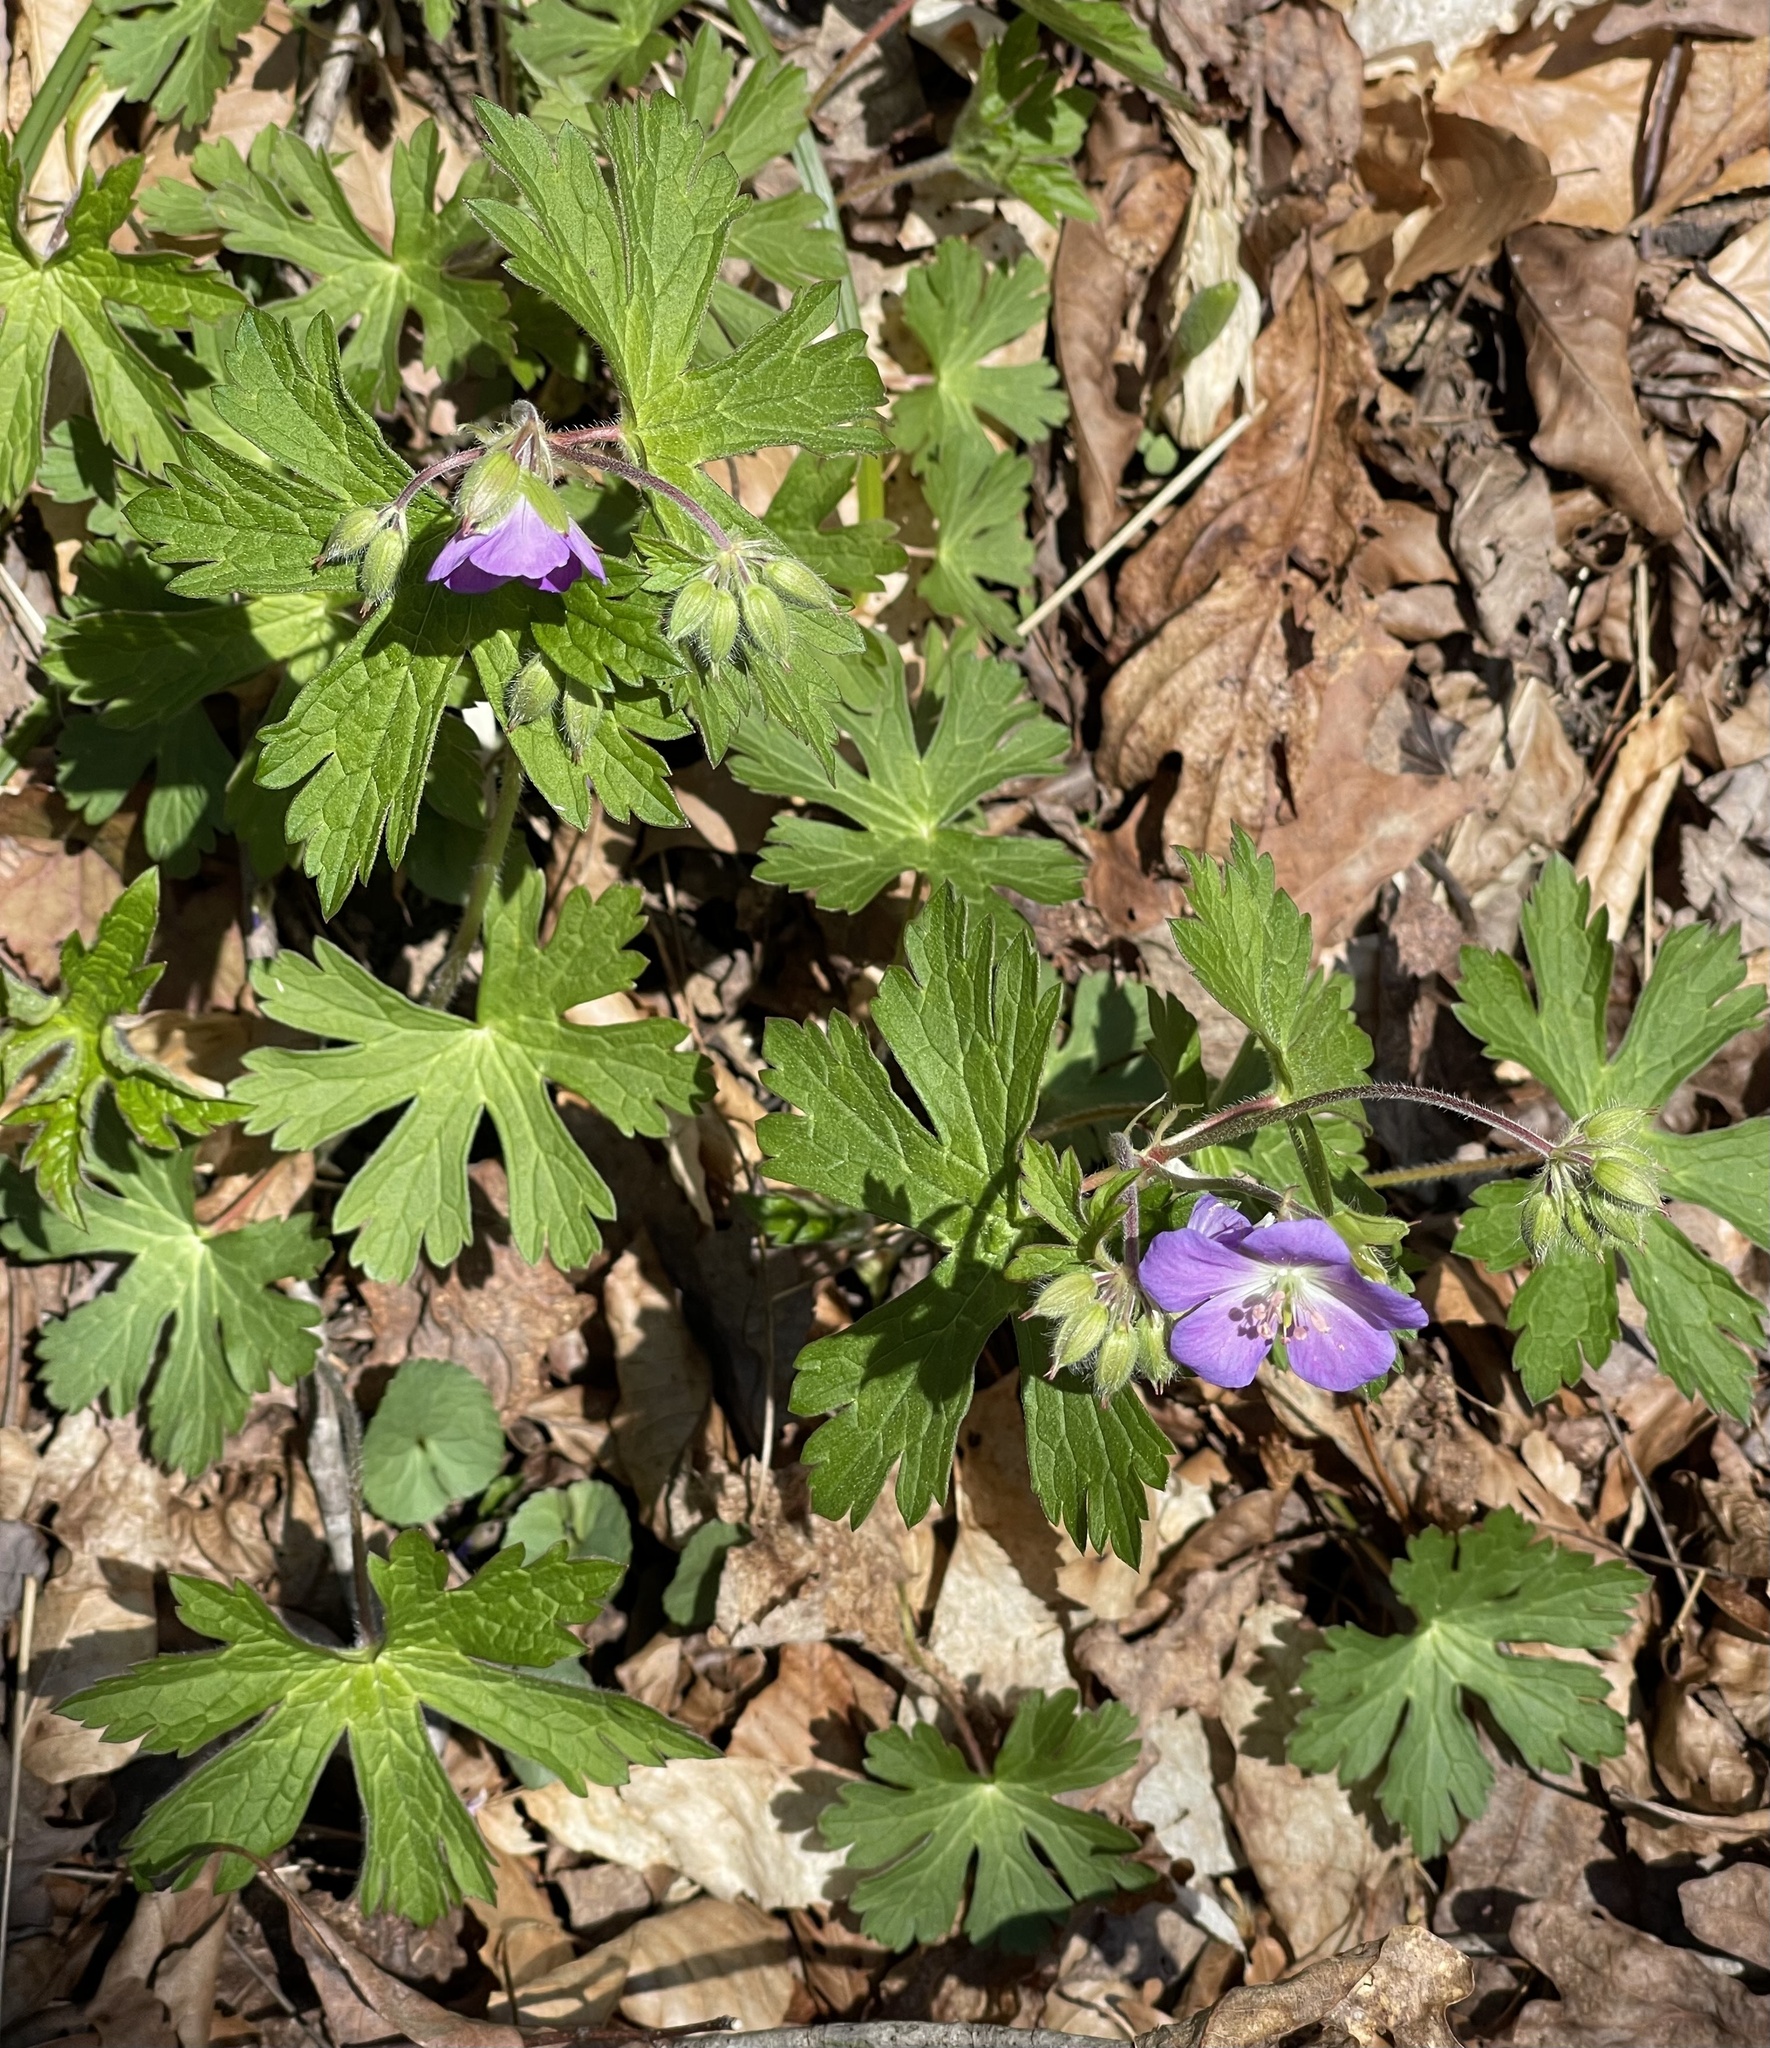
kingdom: Plantae
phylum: Tracheophyta
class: Magnoliopsida
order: Geraniales
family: Geraniaceae
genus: Geranium
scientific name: Geranium maculatum
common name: Spotted geranium
